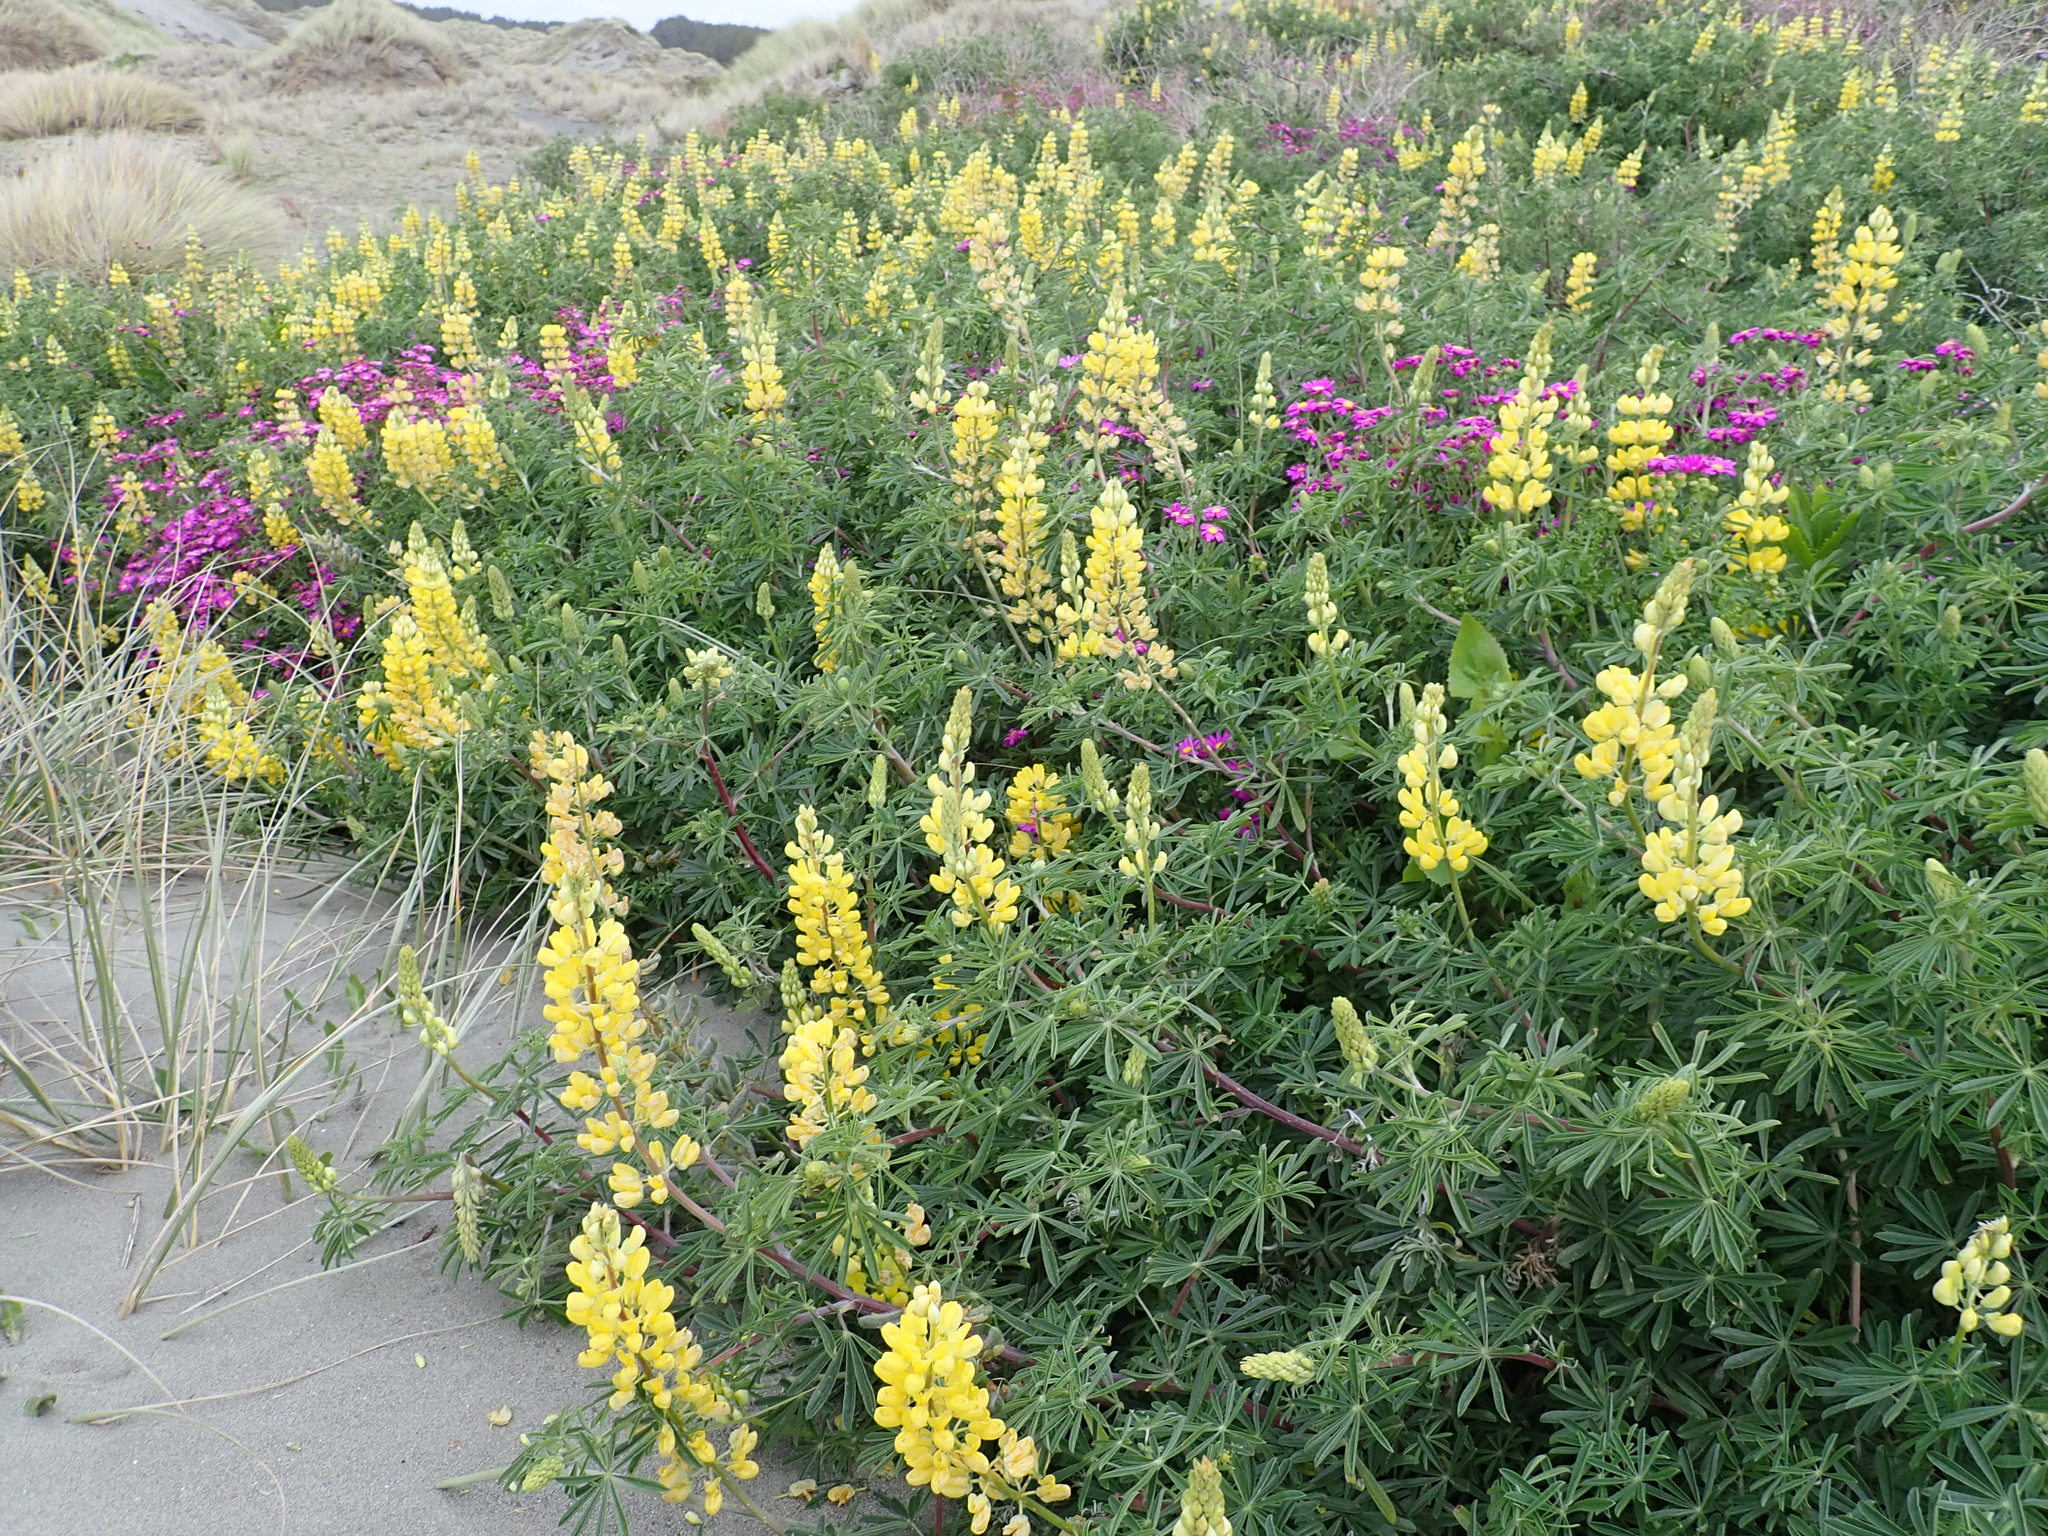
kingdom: Plantae
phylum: Tracheophyta
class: Magnoliopsida
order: Fabales
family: Fabaceae
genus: Lupinus
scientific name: Lupinus arboreus
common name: Yellow bush lupine
